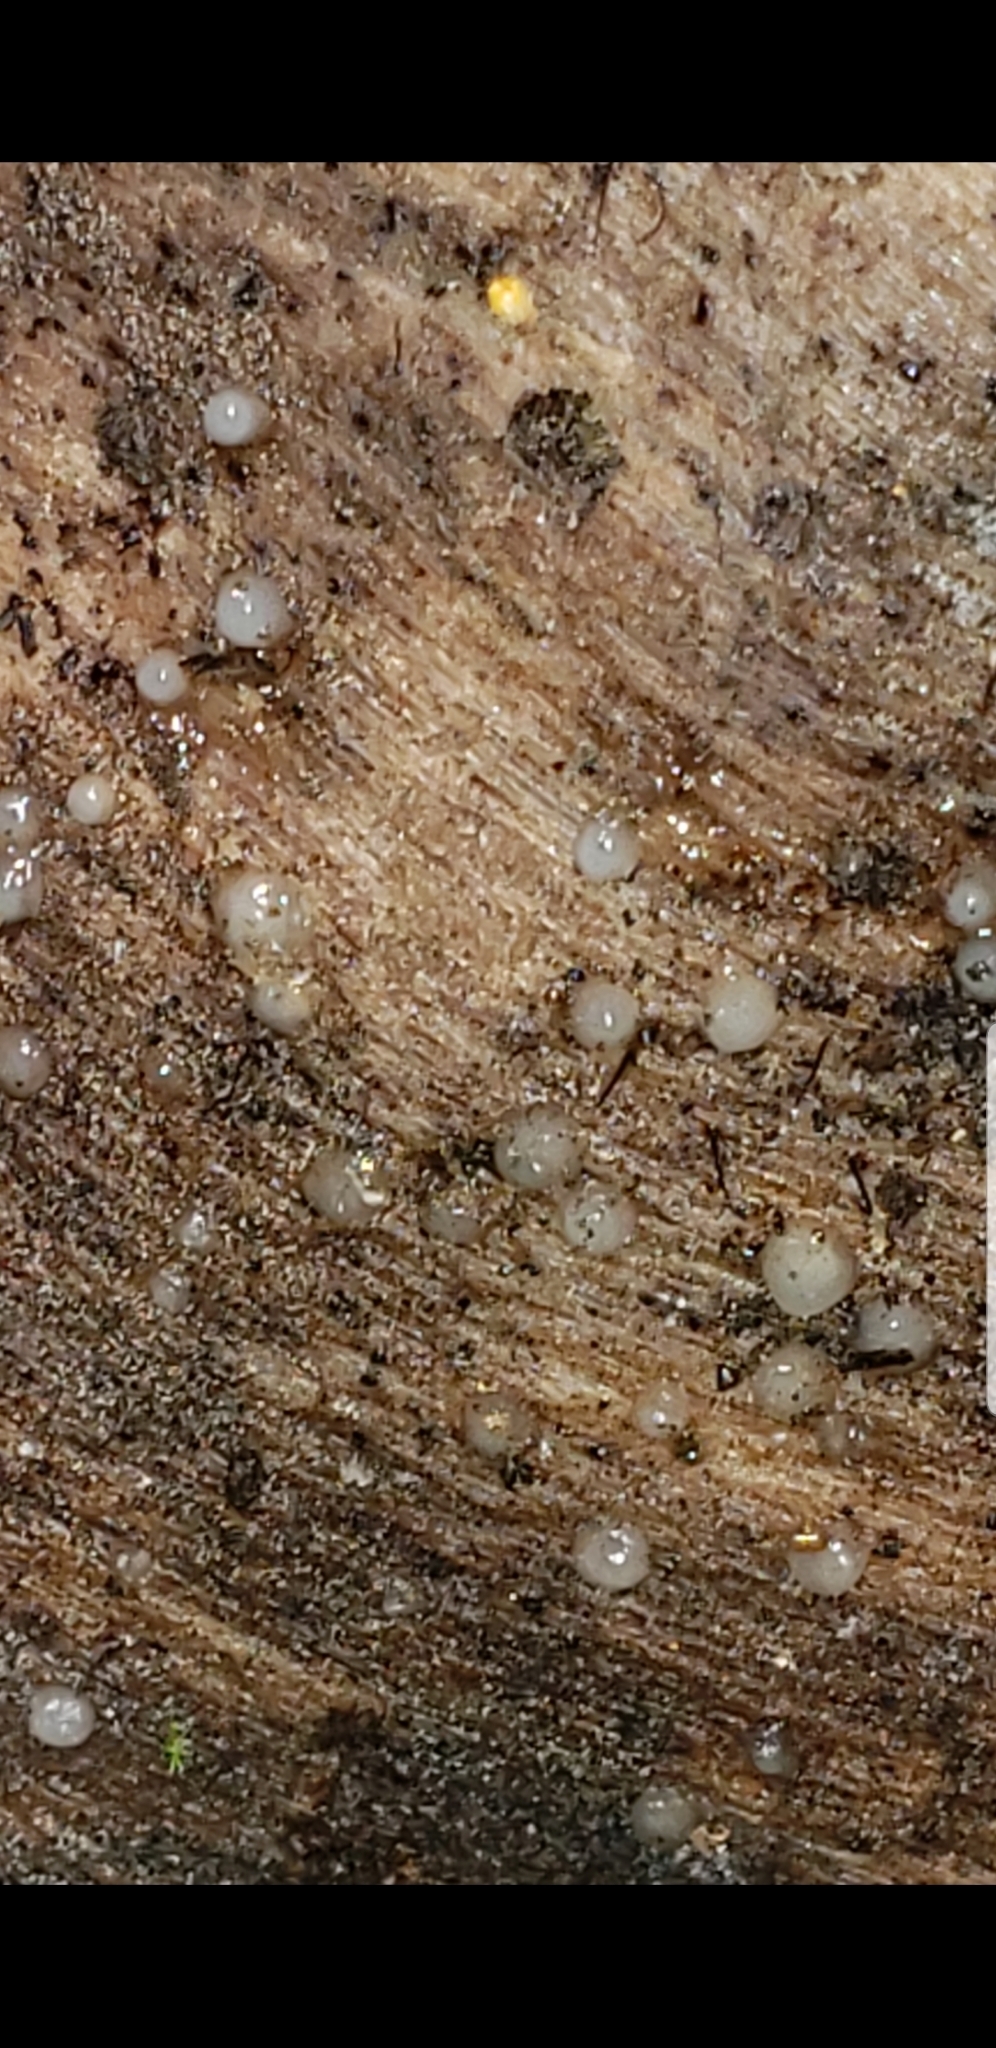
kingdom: Fungi
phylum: Basidiomycota
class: Atractiellomycetes
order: Atractiellales
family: Phleogenaceae
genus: Helicogloea
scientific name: Helicogloea compressa
